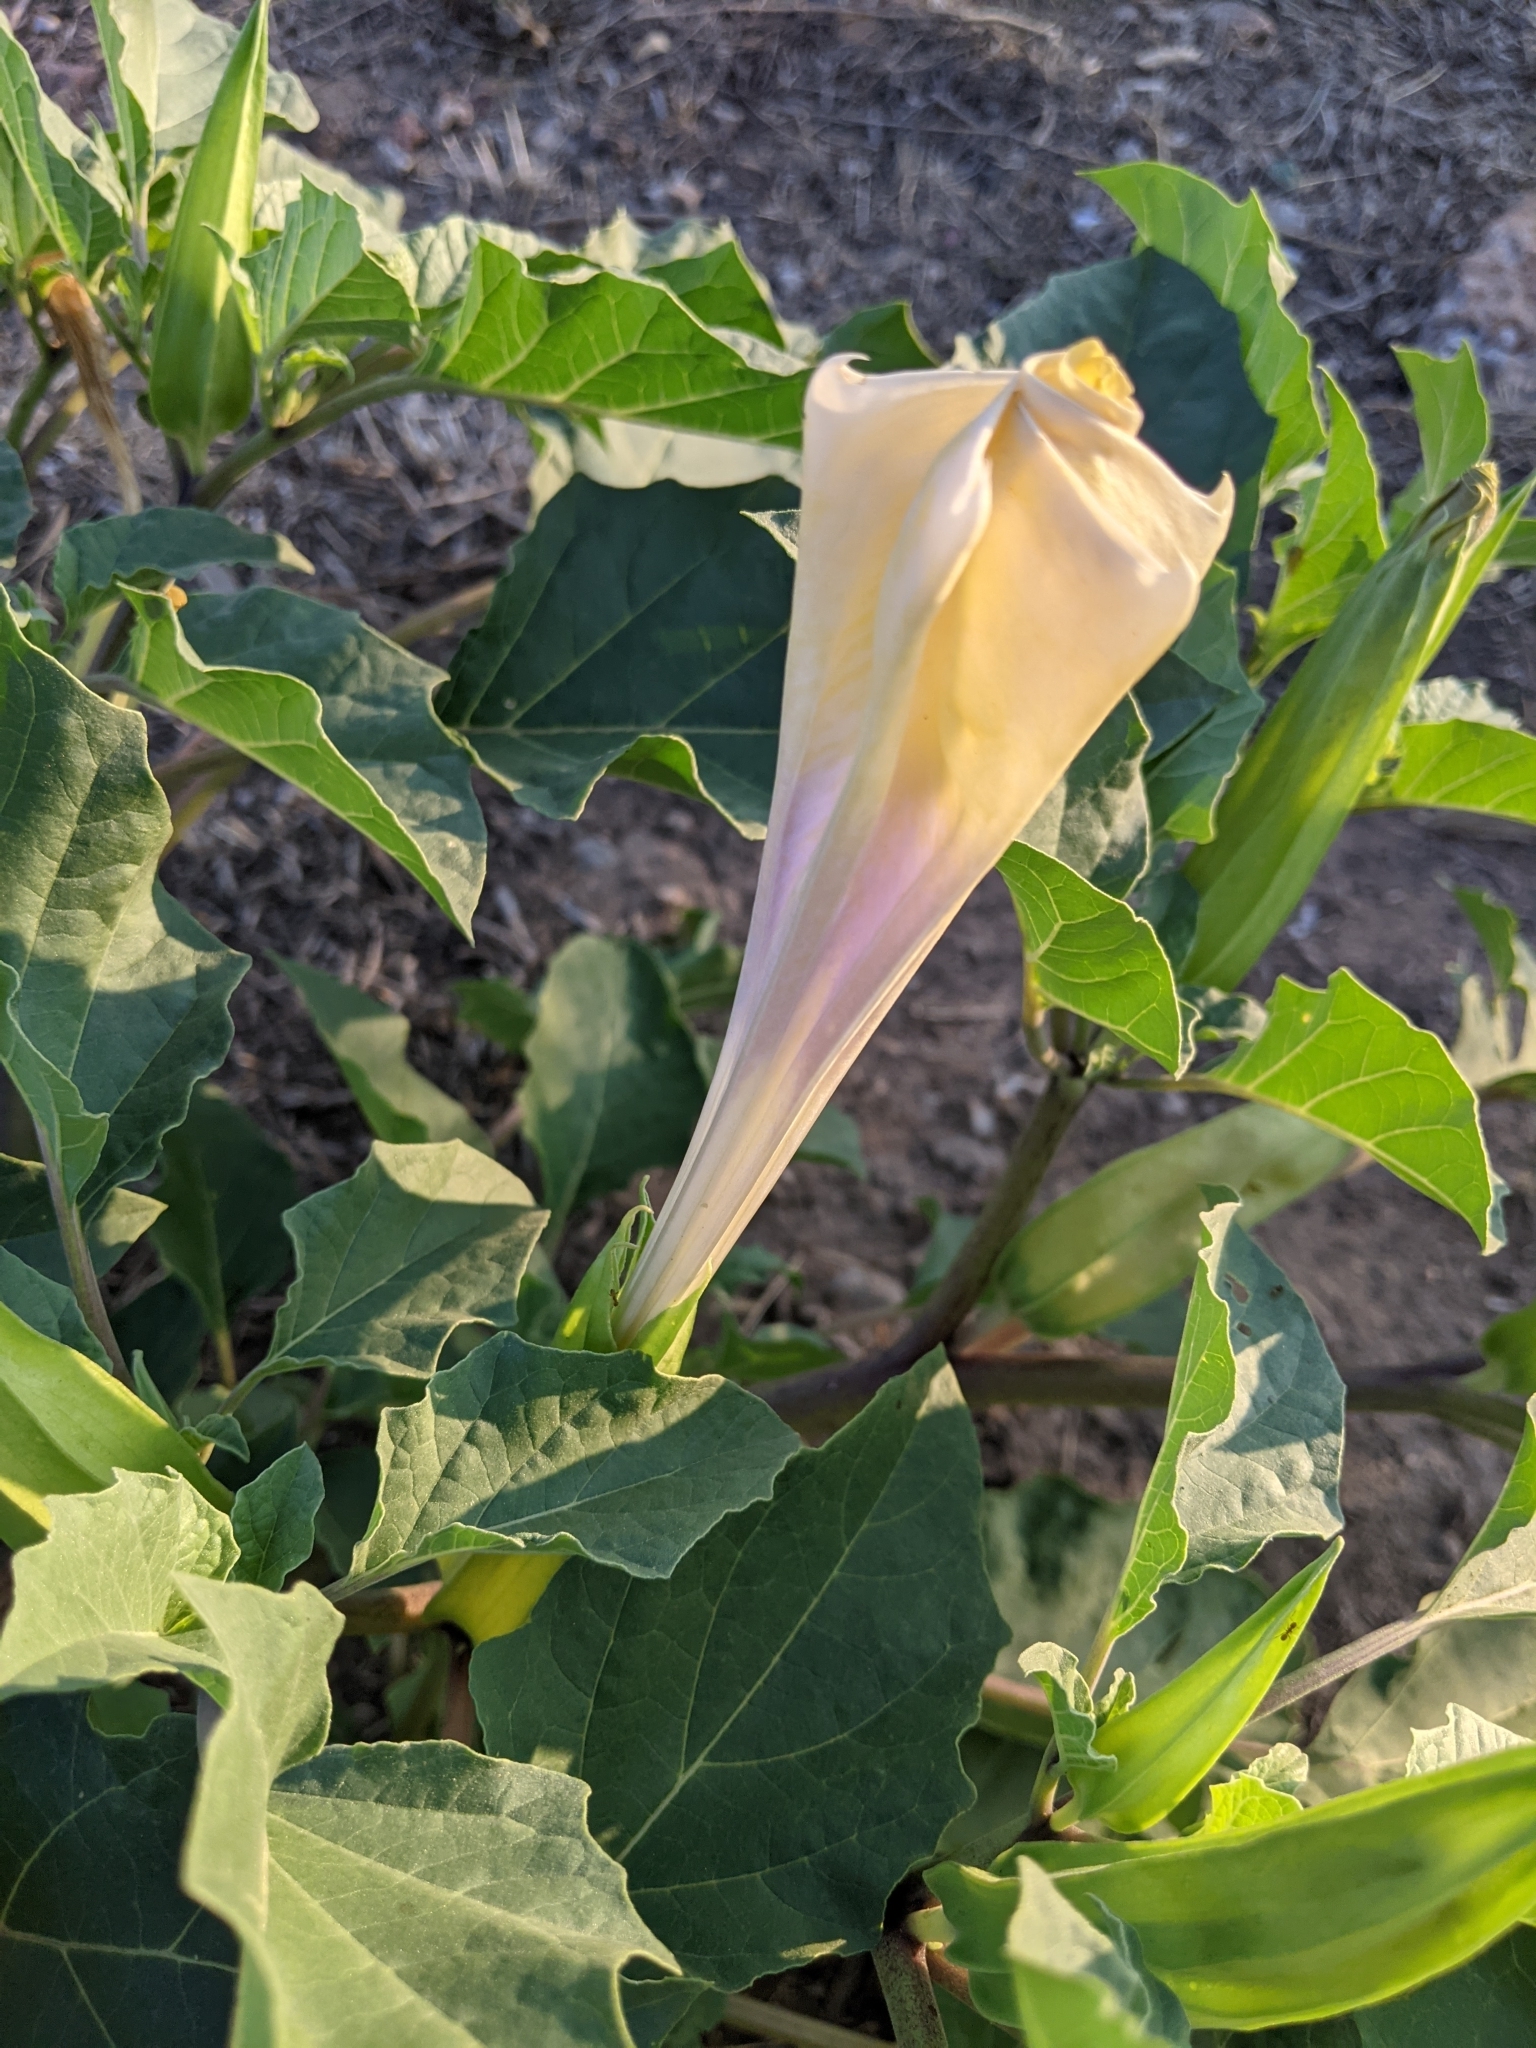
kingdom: Plantae
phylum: Tracheophyta
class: Magnoliopsida
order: Solanales
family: Solanaceae
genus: Datura
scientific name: Datura discolor
